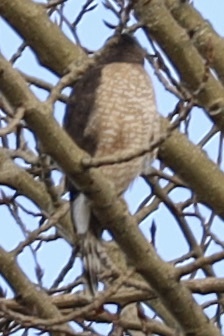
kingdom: Animalia
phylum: Chordata
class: Aves
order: Accipitriformes
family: Accipitridae
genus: Accipiter
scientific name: Accipiter cooperii
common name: Cooper's hawk
